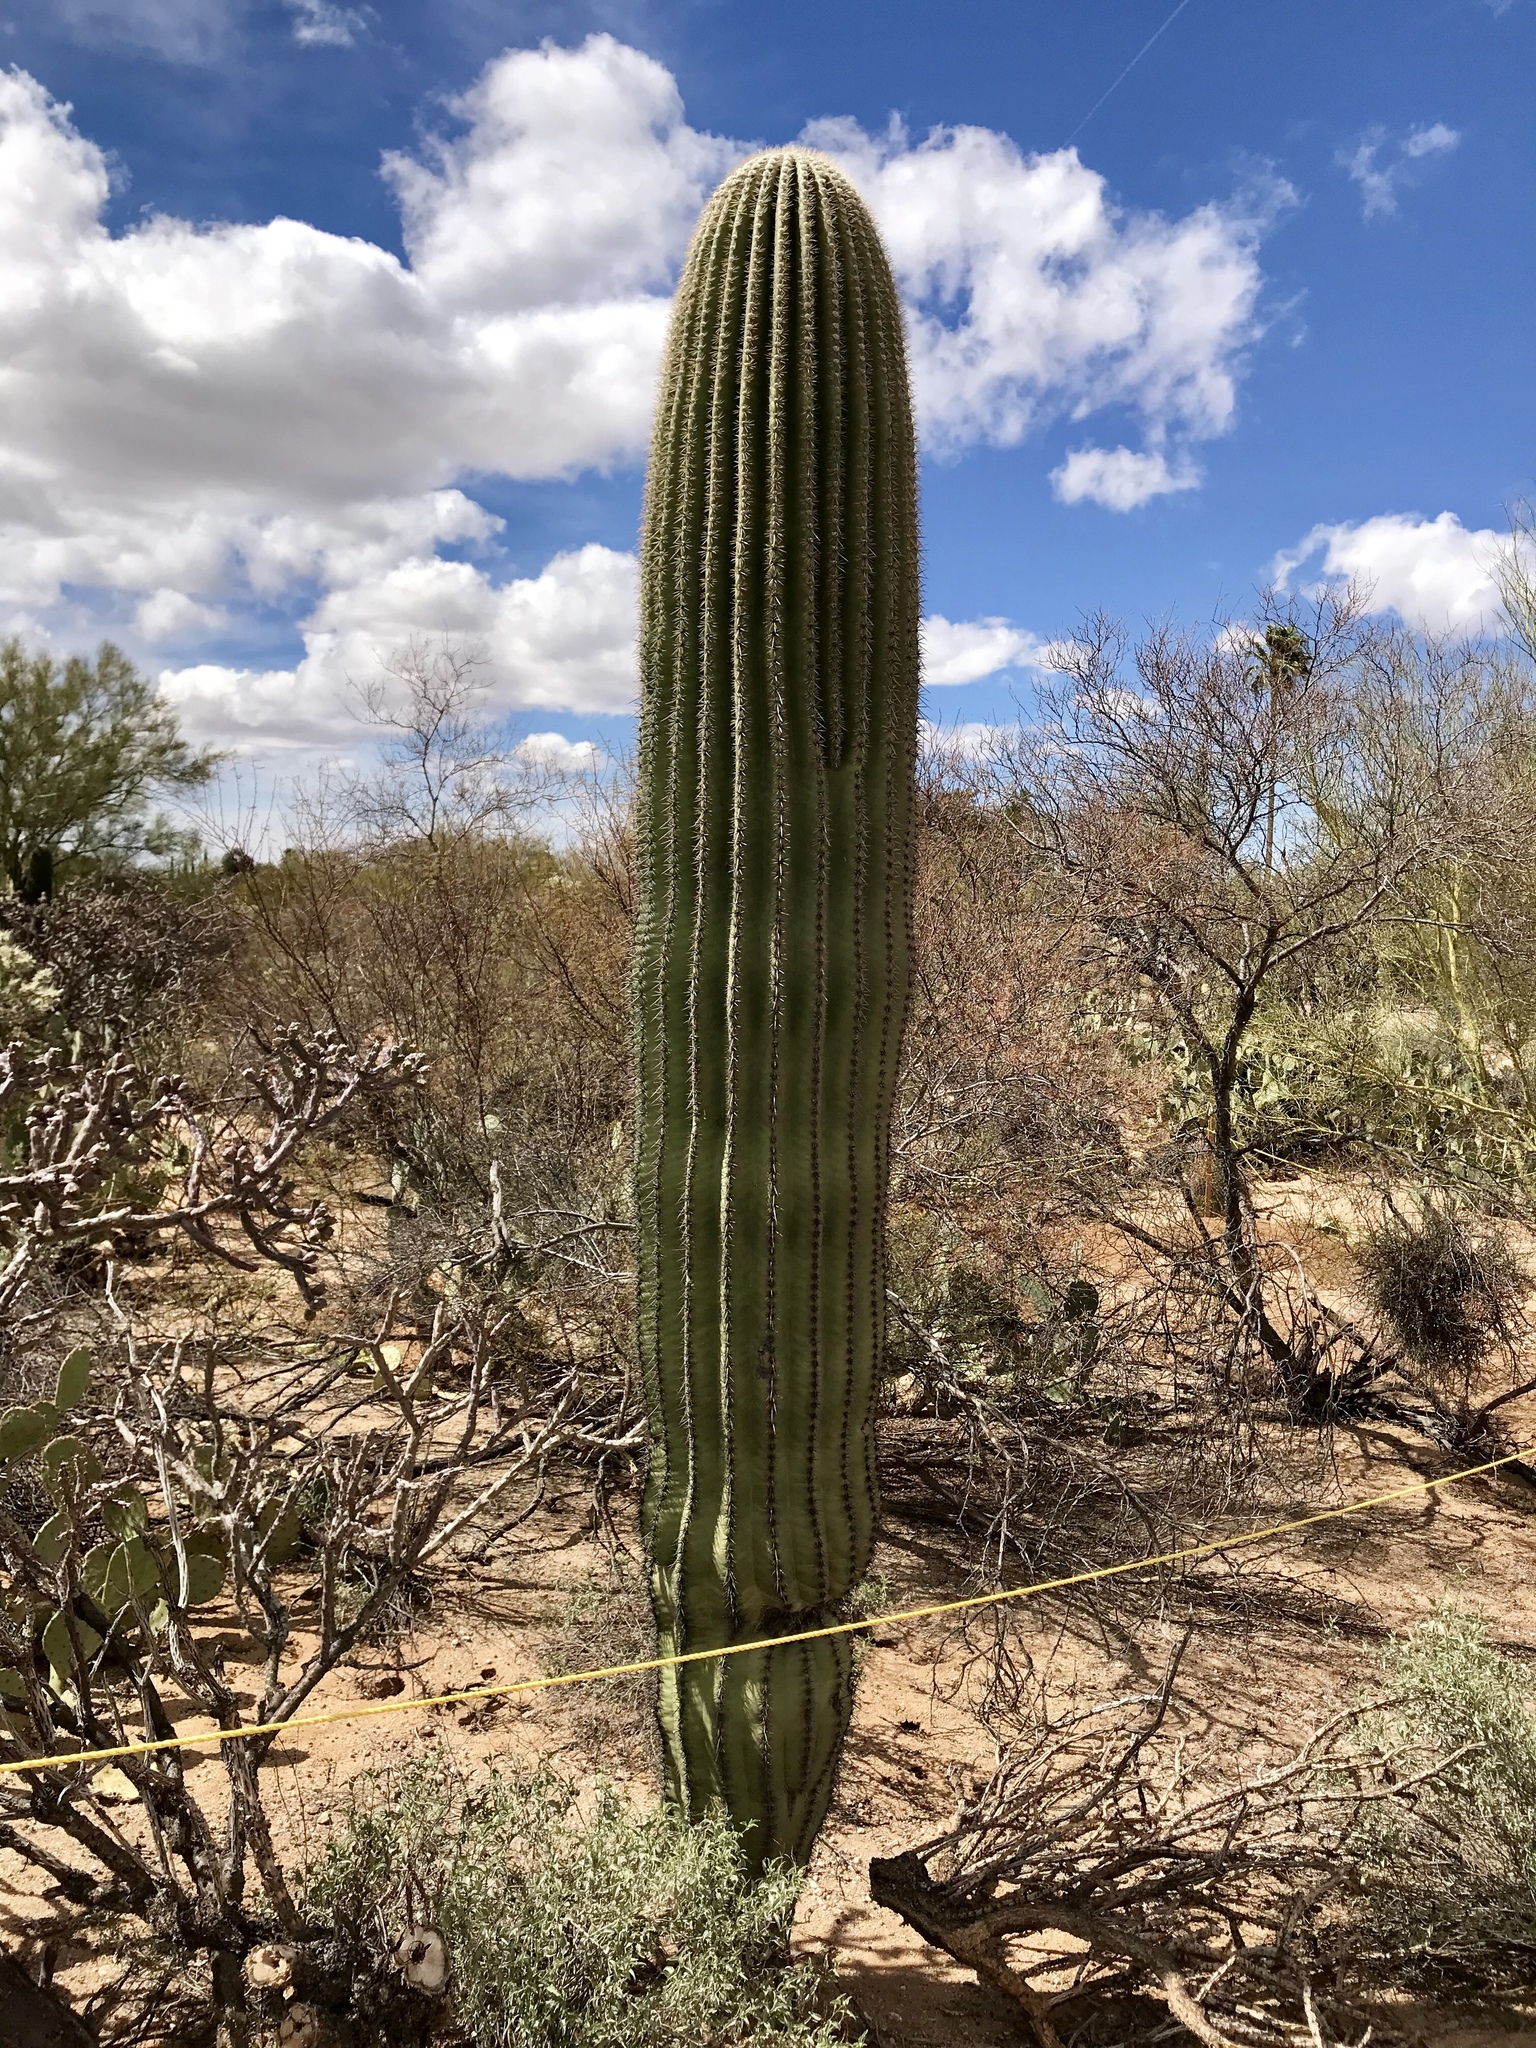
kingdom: Plantae
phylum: Tracheophyta
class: Magnoliopsida
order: Caryophyllales
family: Cactaceae
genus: Carnegiea
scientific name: Carnegiea gigantea
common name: Saguaro
